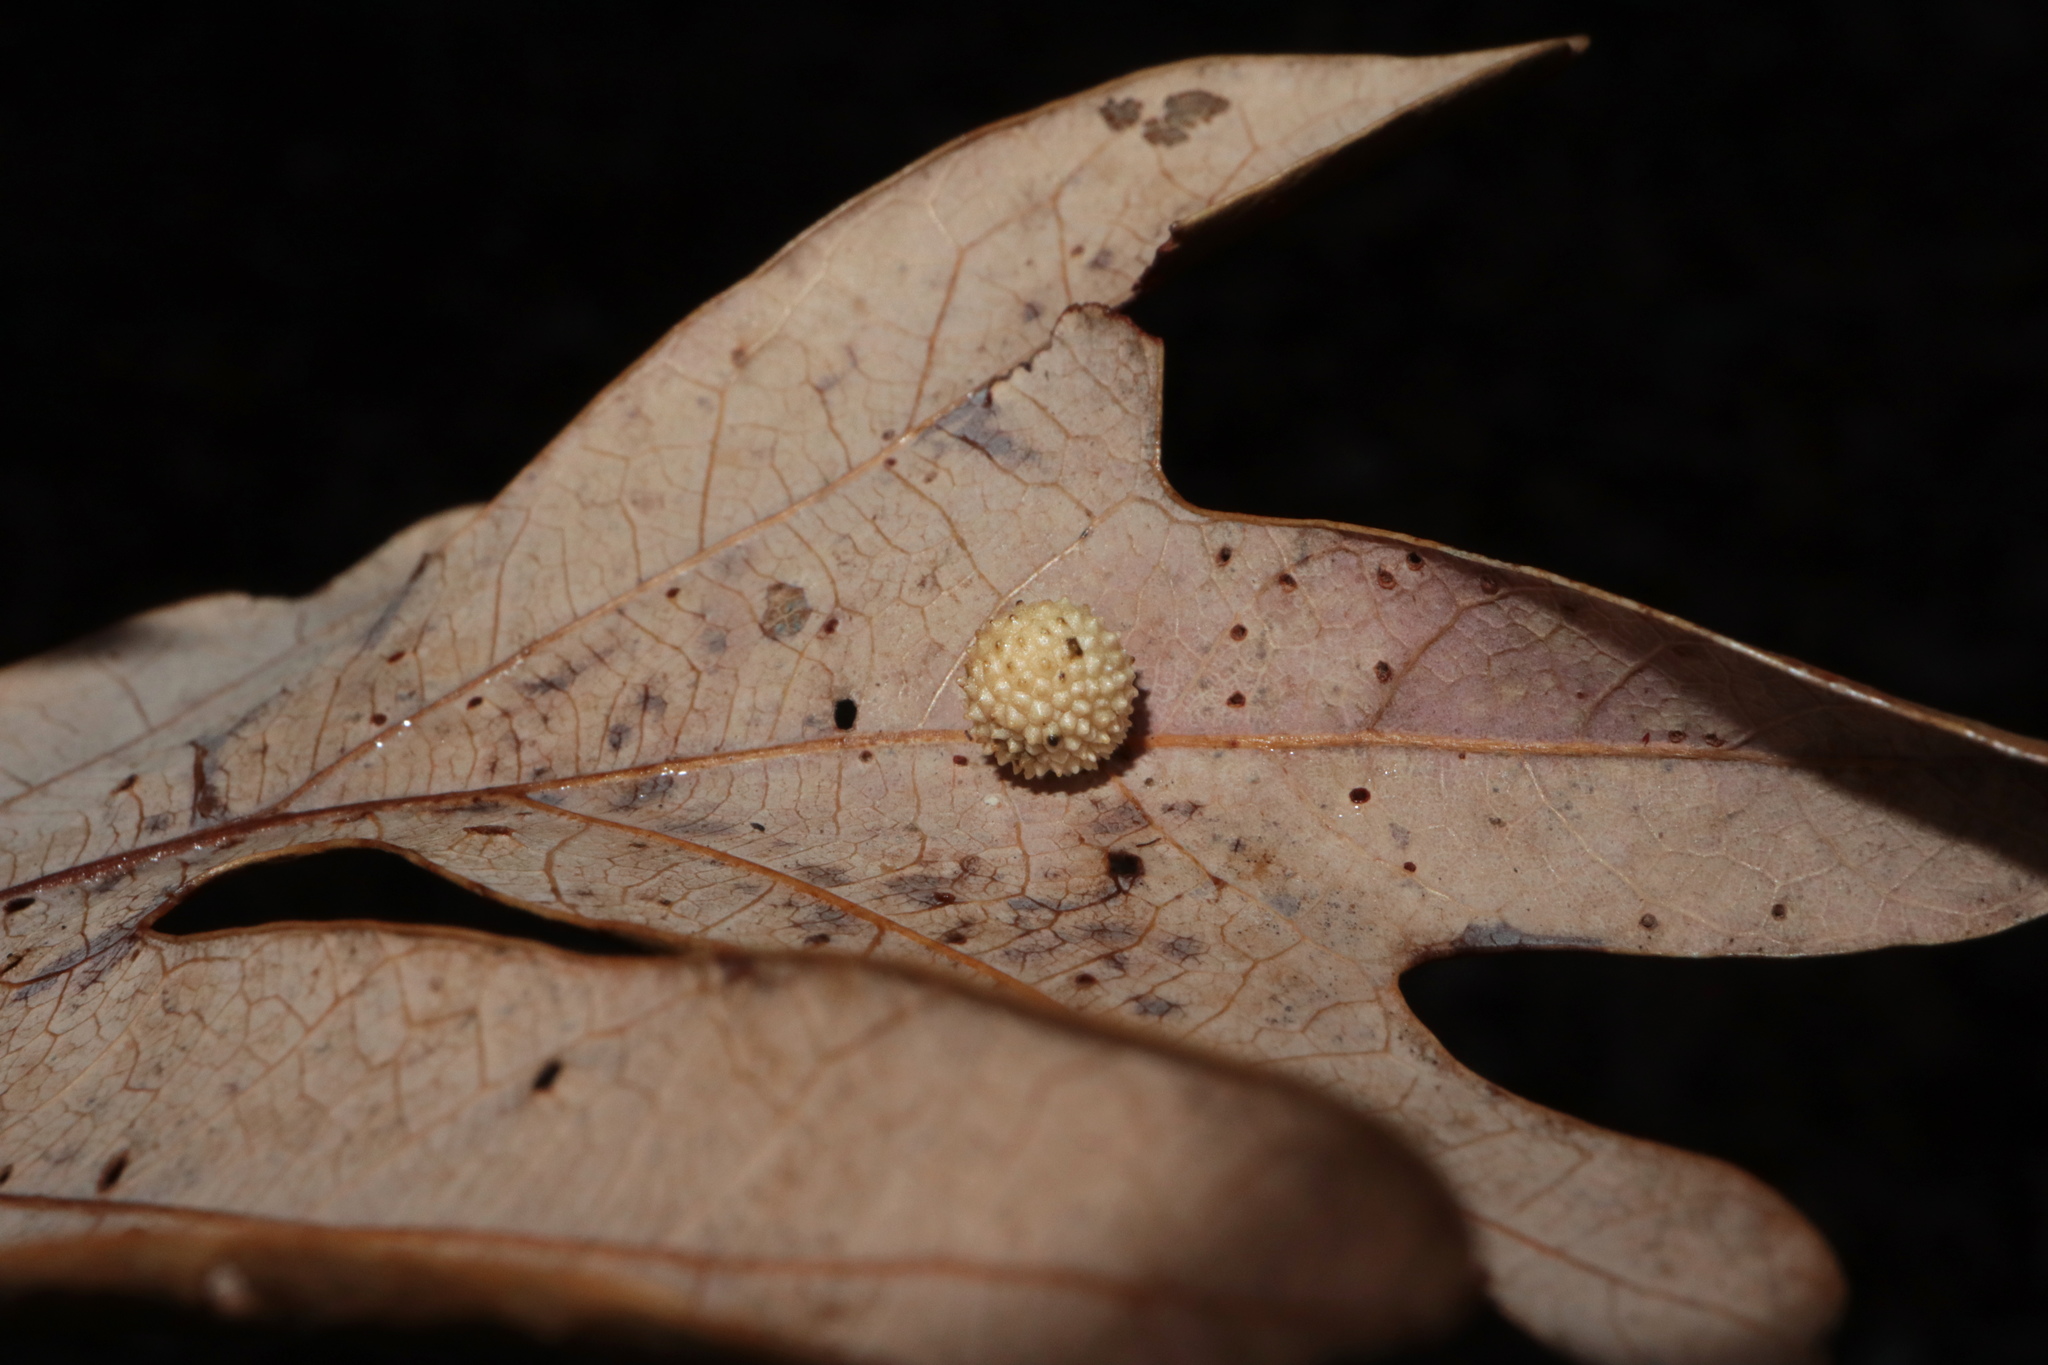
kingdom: Animalia
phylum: Arthropoda
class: Insecta
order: Hymenoptera
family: Cynipidae
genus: Acraspis
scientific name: Acraspis
